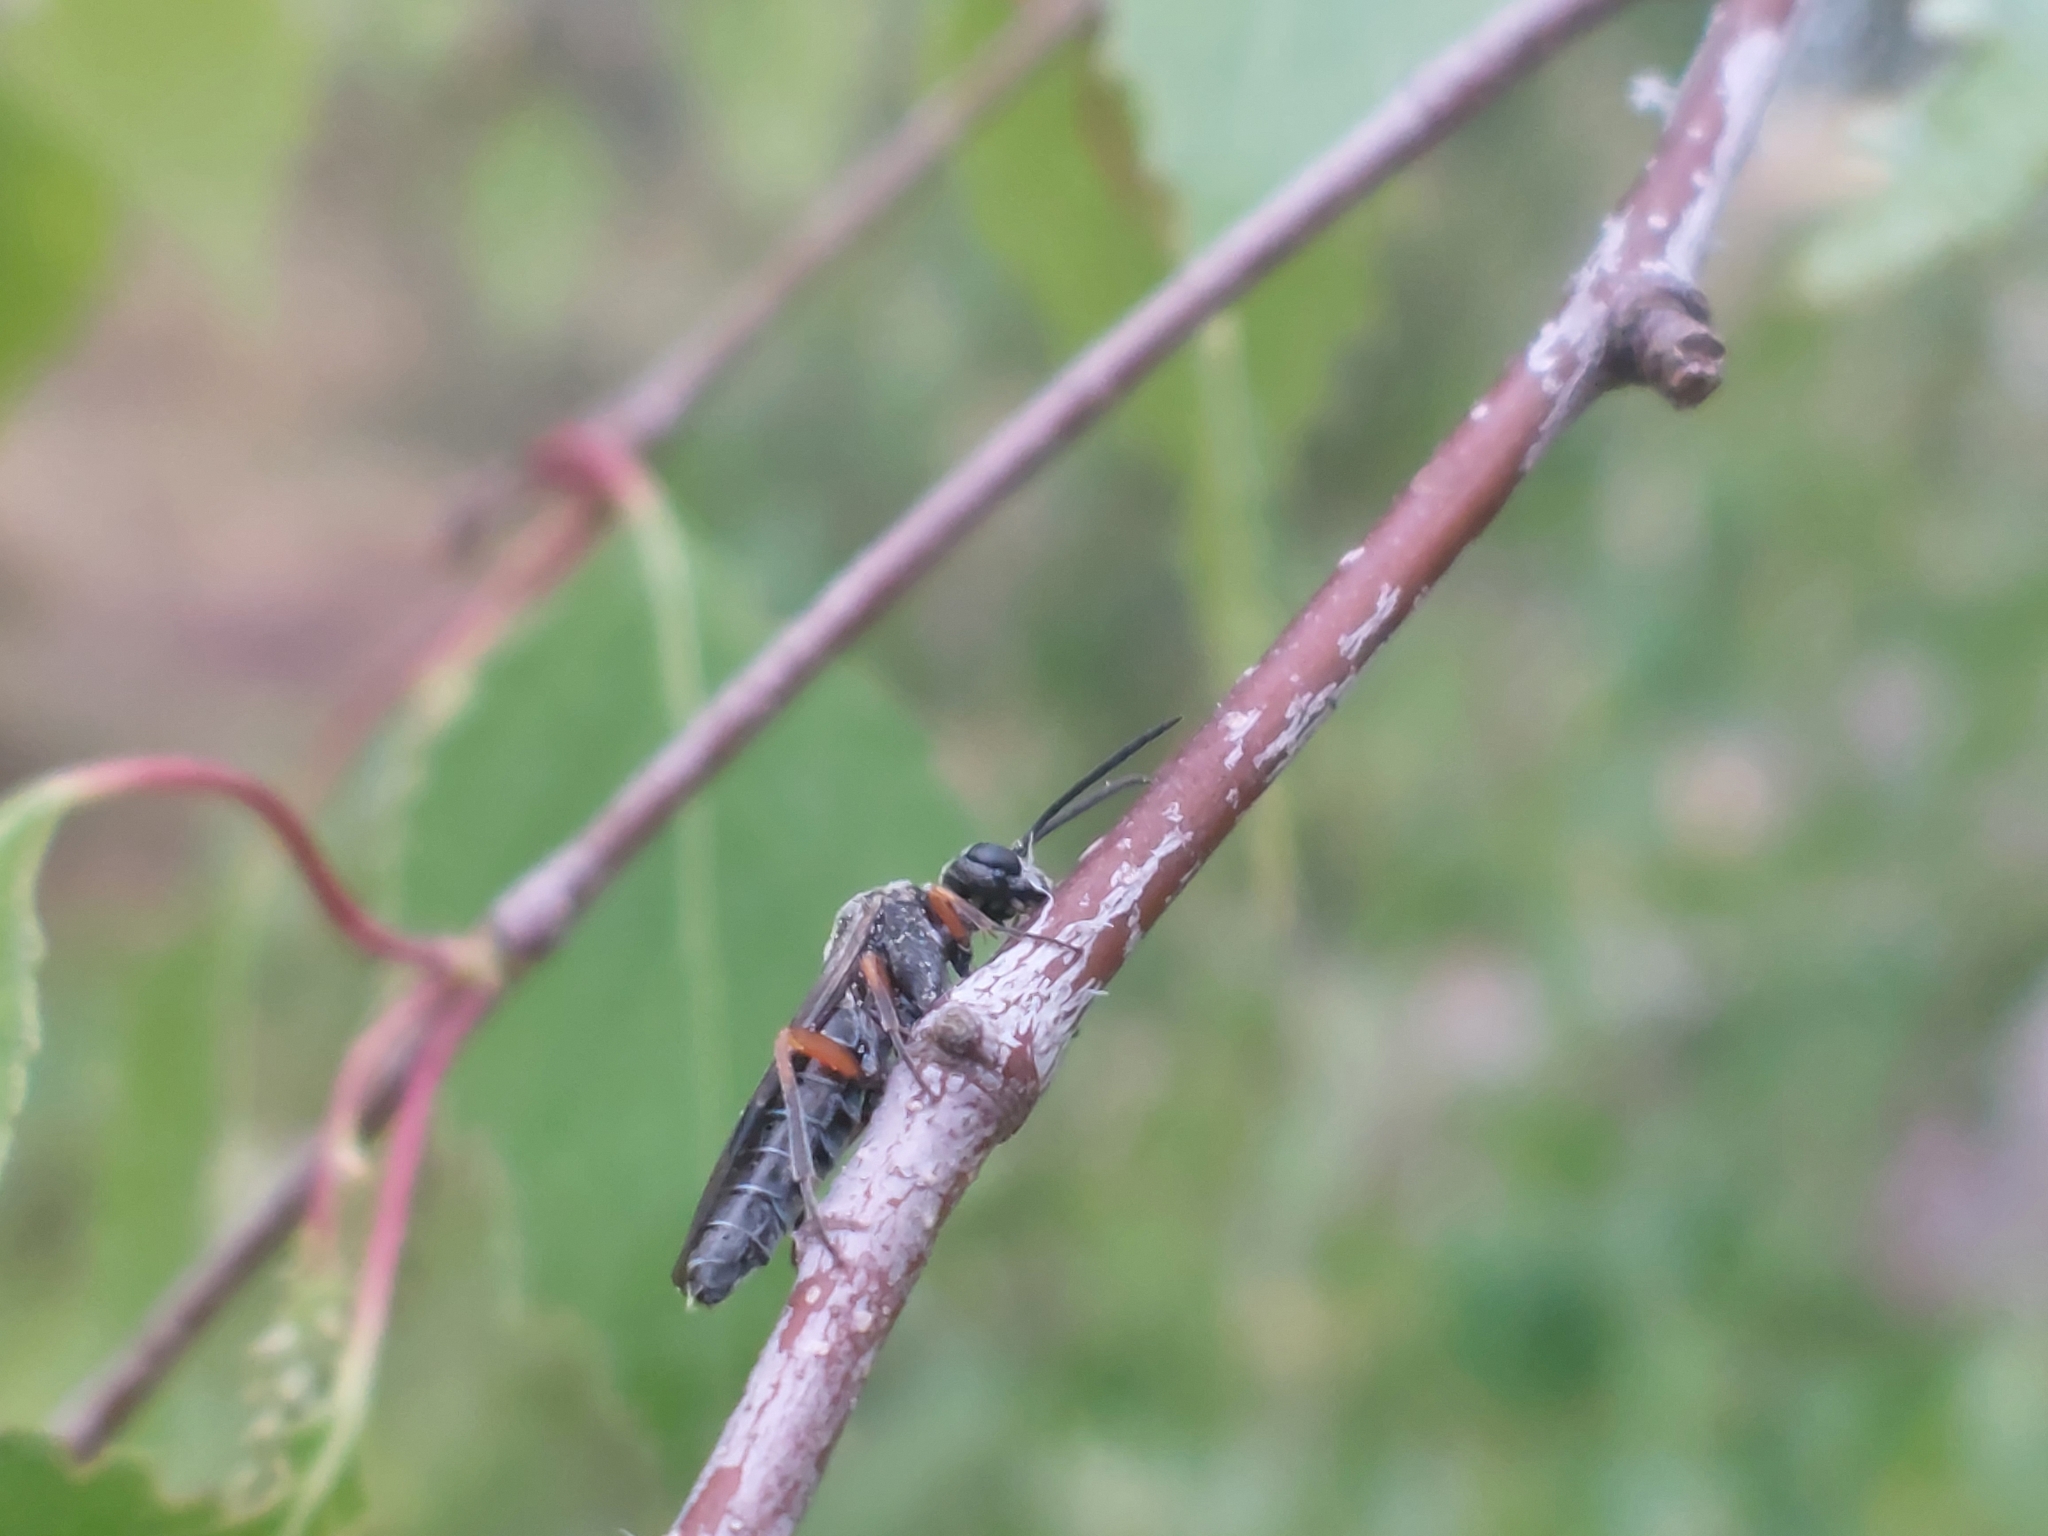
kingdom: Animalia
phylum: Arthropoda
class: Insecta
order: Hymenoptera
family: Tenthredinidae
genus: Dolerus
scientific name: Dolerus vestigialis
